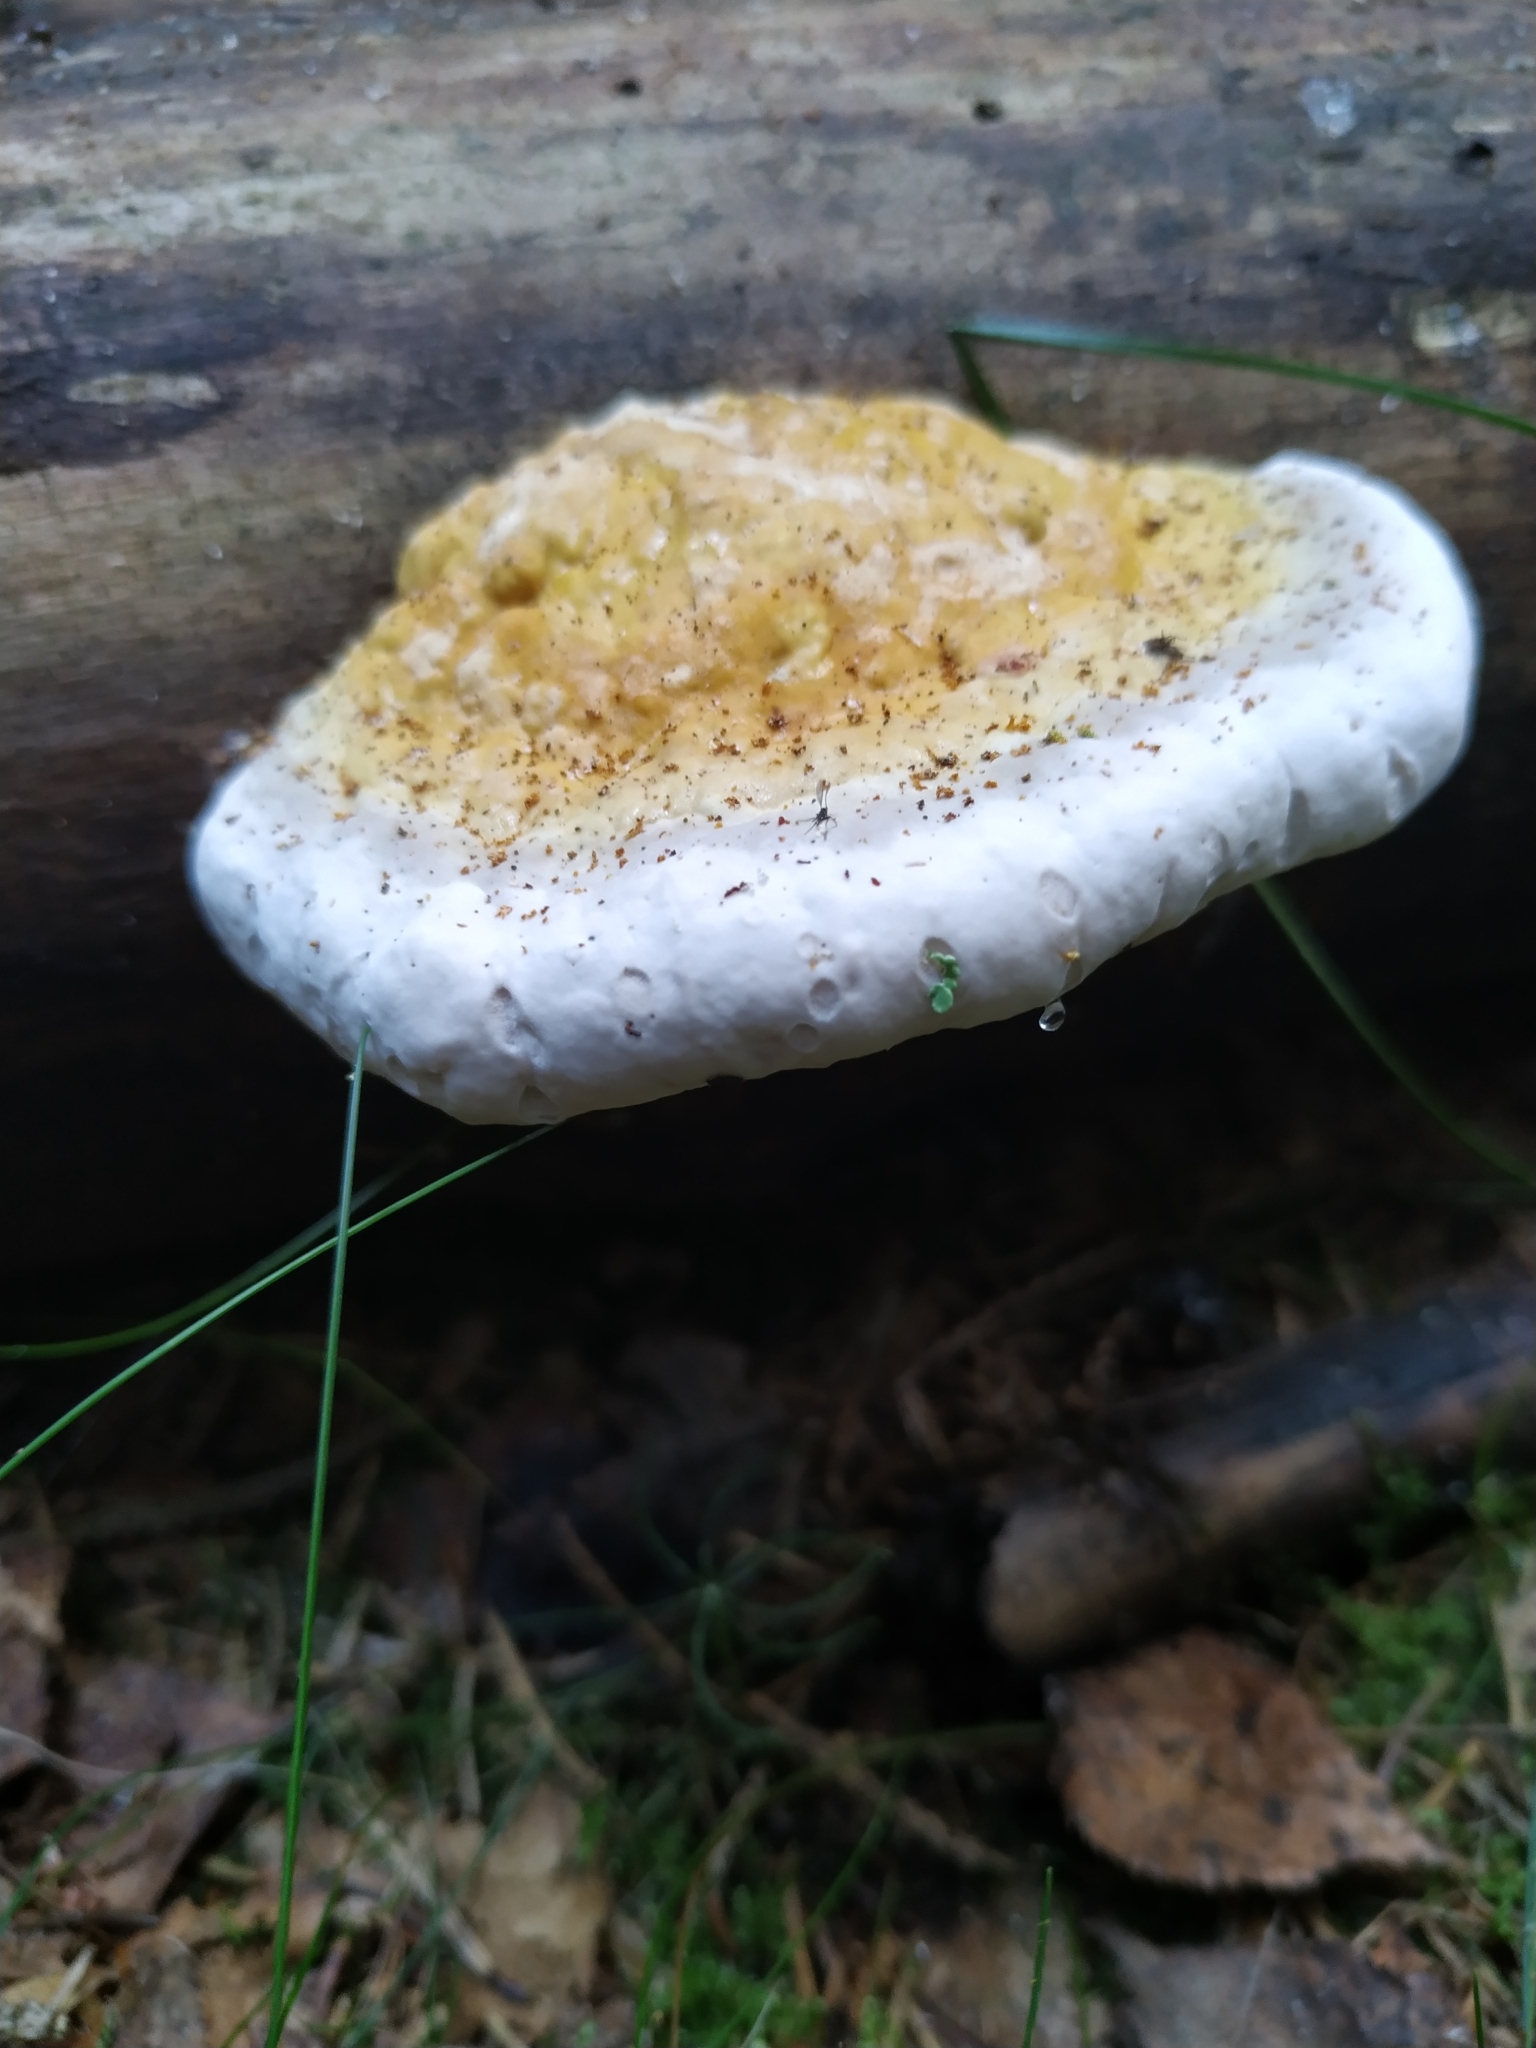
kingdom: Fungi
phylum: Basidiomycota
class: Agaricomycetes
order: Polyporales
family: Fomitopsidaceae
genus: Fomitopsis
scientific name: Fomitopsis pinicola
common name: Red-belted bracket
